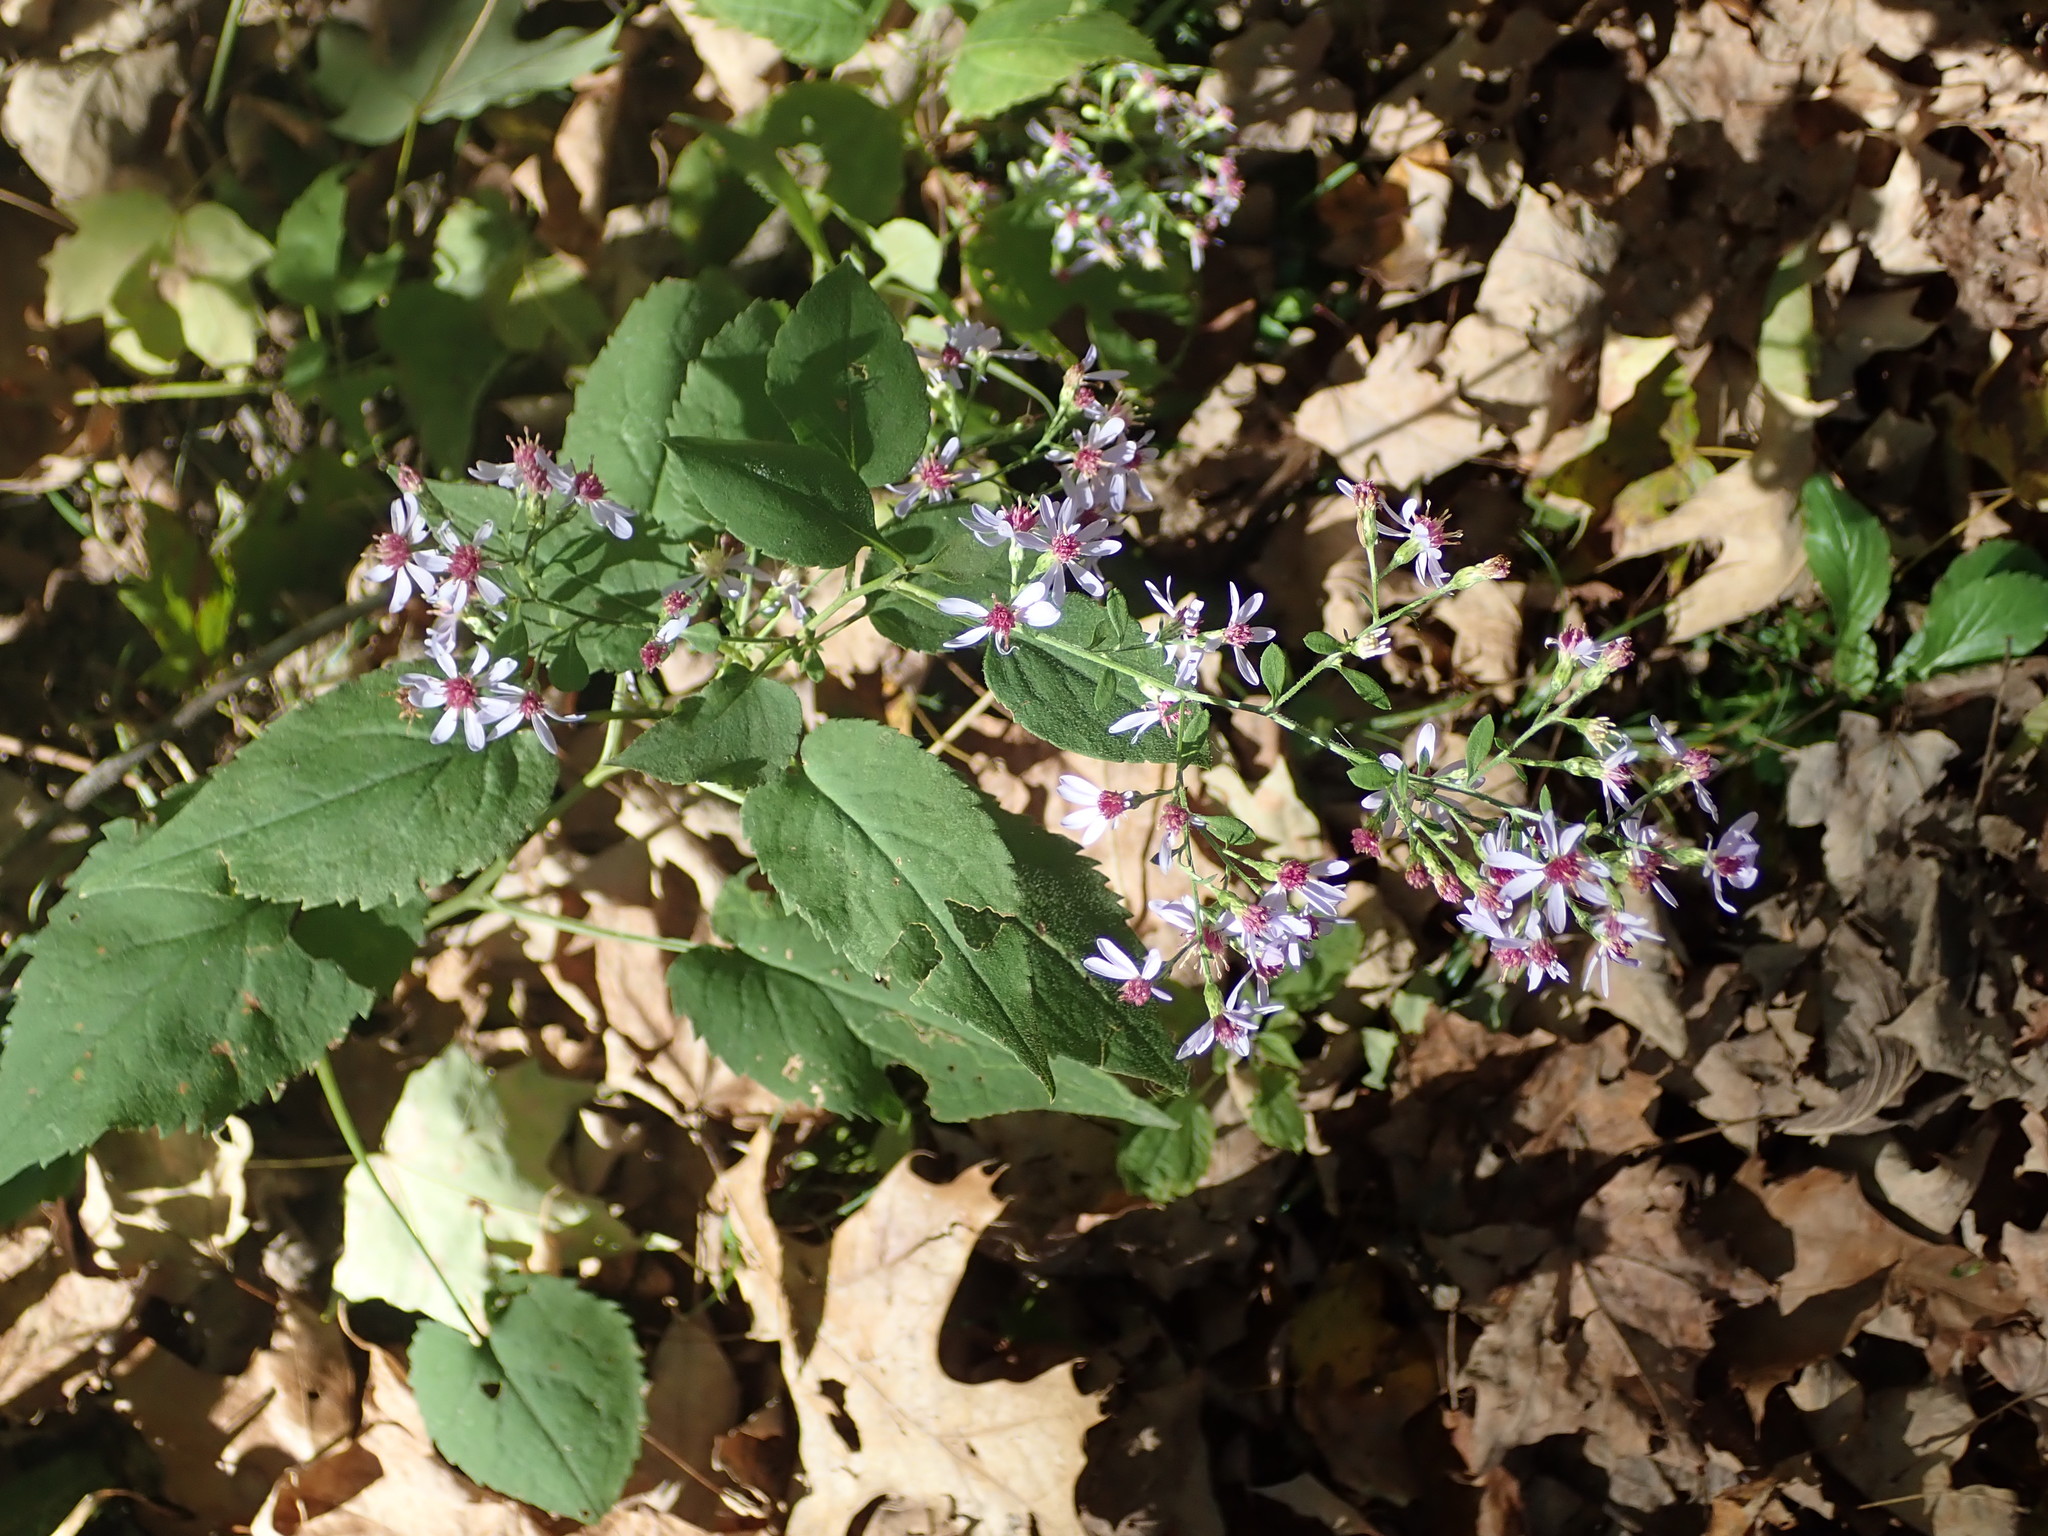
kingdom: Plantae
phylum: Tracheophyta
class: Magnoliopsida
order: Asterales
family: Asteraceae
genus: Symphyotrichum
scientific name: Symphyotrichum cordifolium
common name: Beeweed
